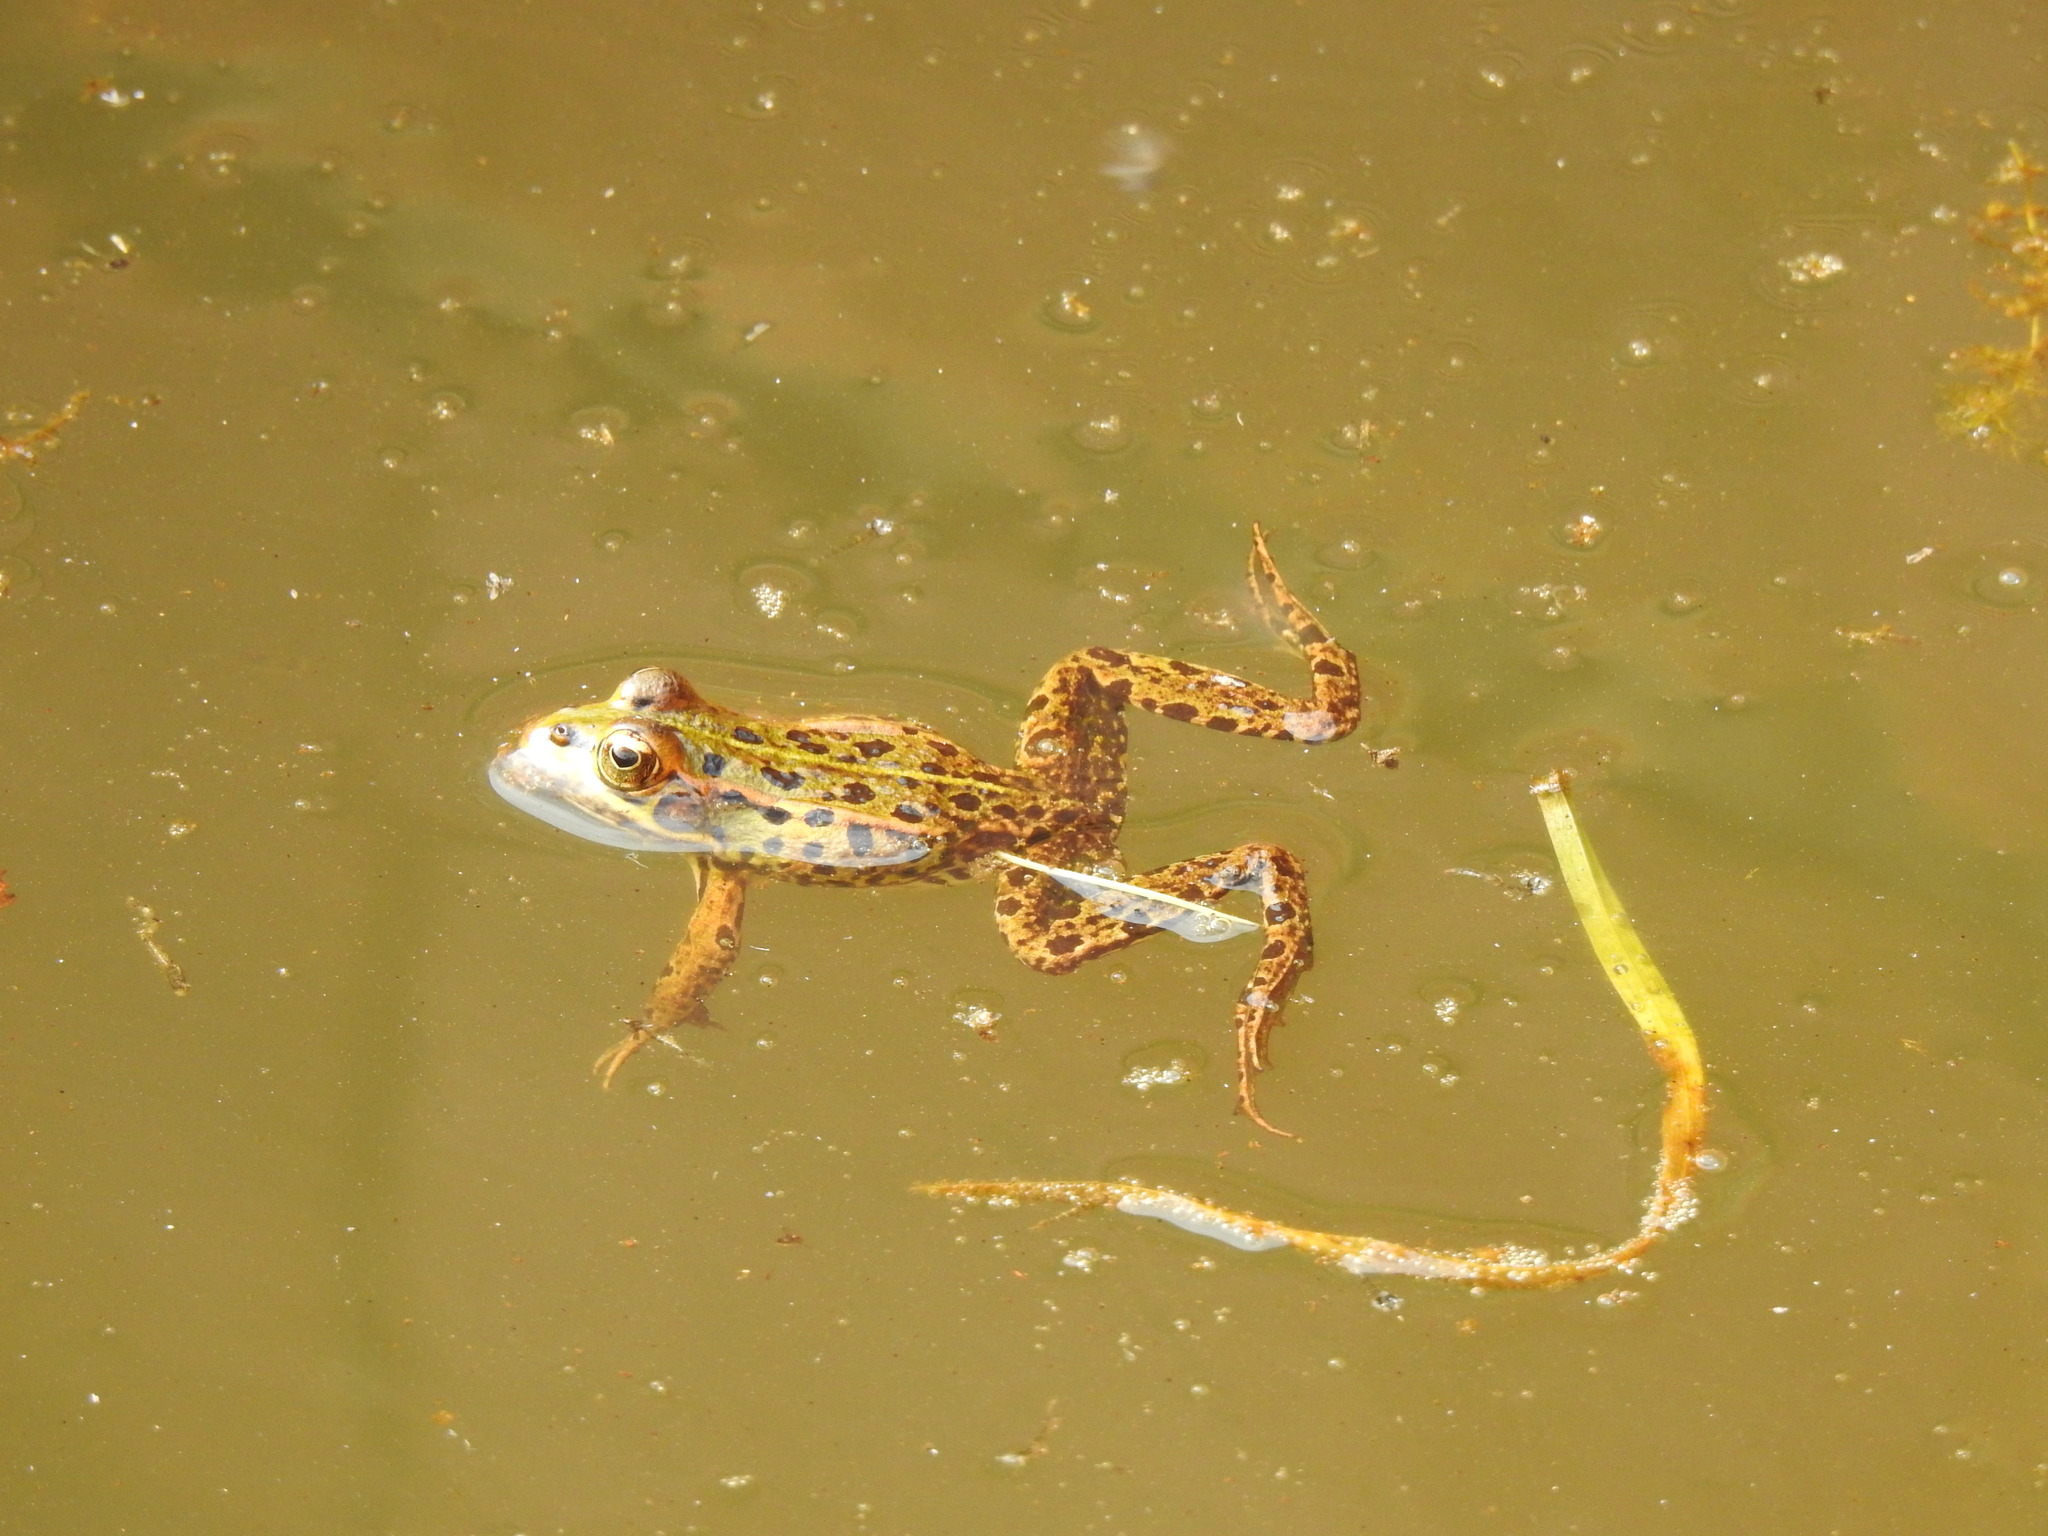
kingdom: Animalia
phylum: Chordata
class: Amphibia
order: Anura
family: Ranidae
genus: Pelophylax
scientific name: Pelophylax perezi
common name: Perez's frog
